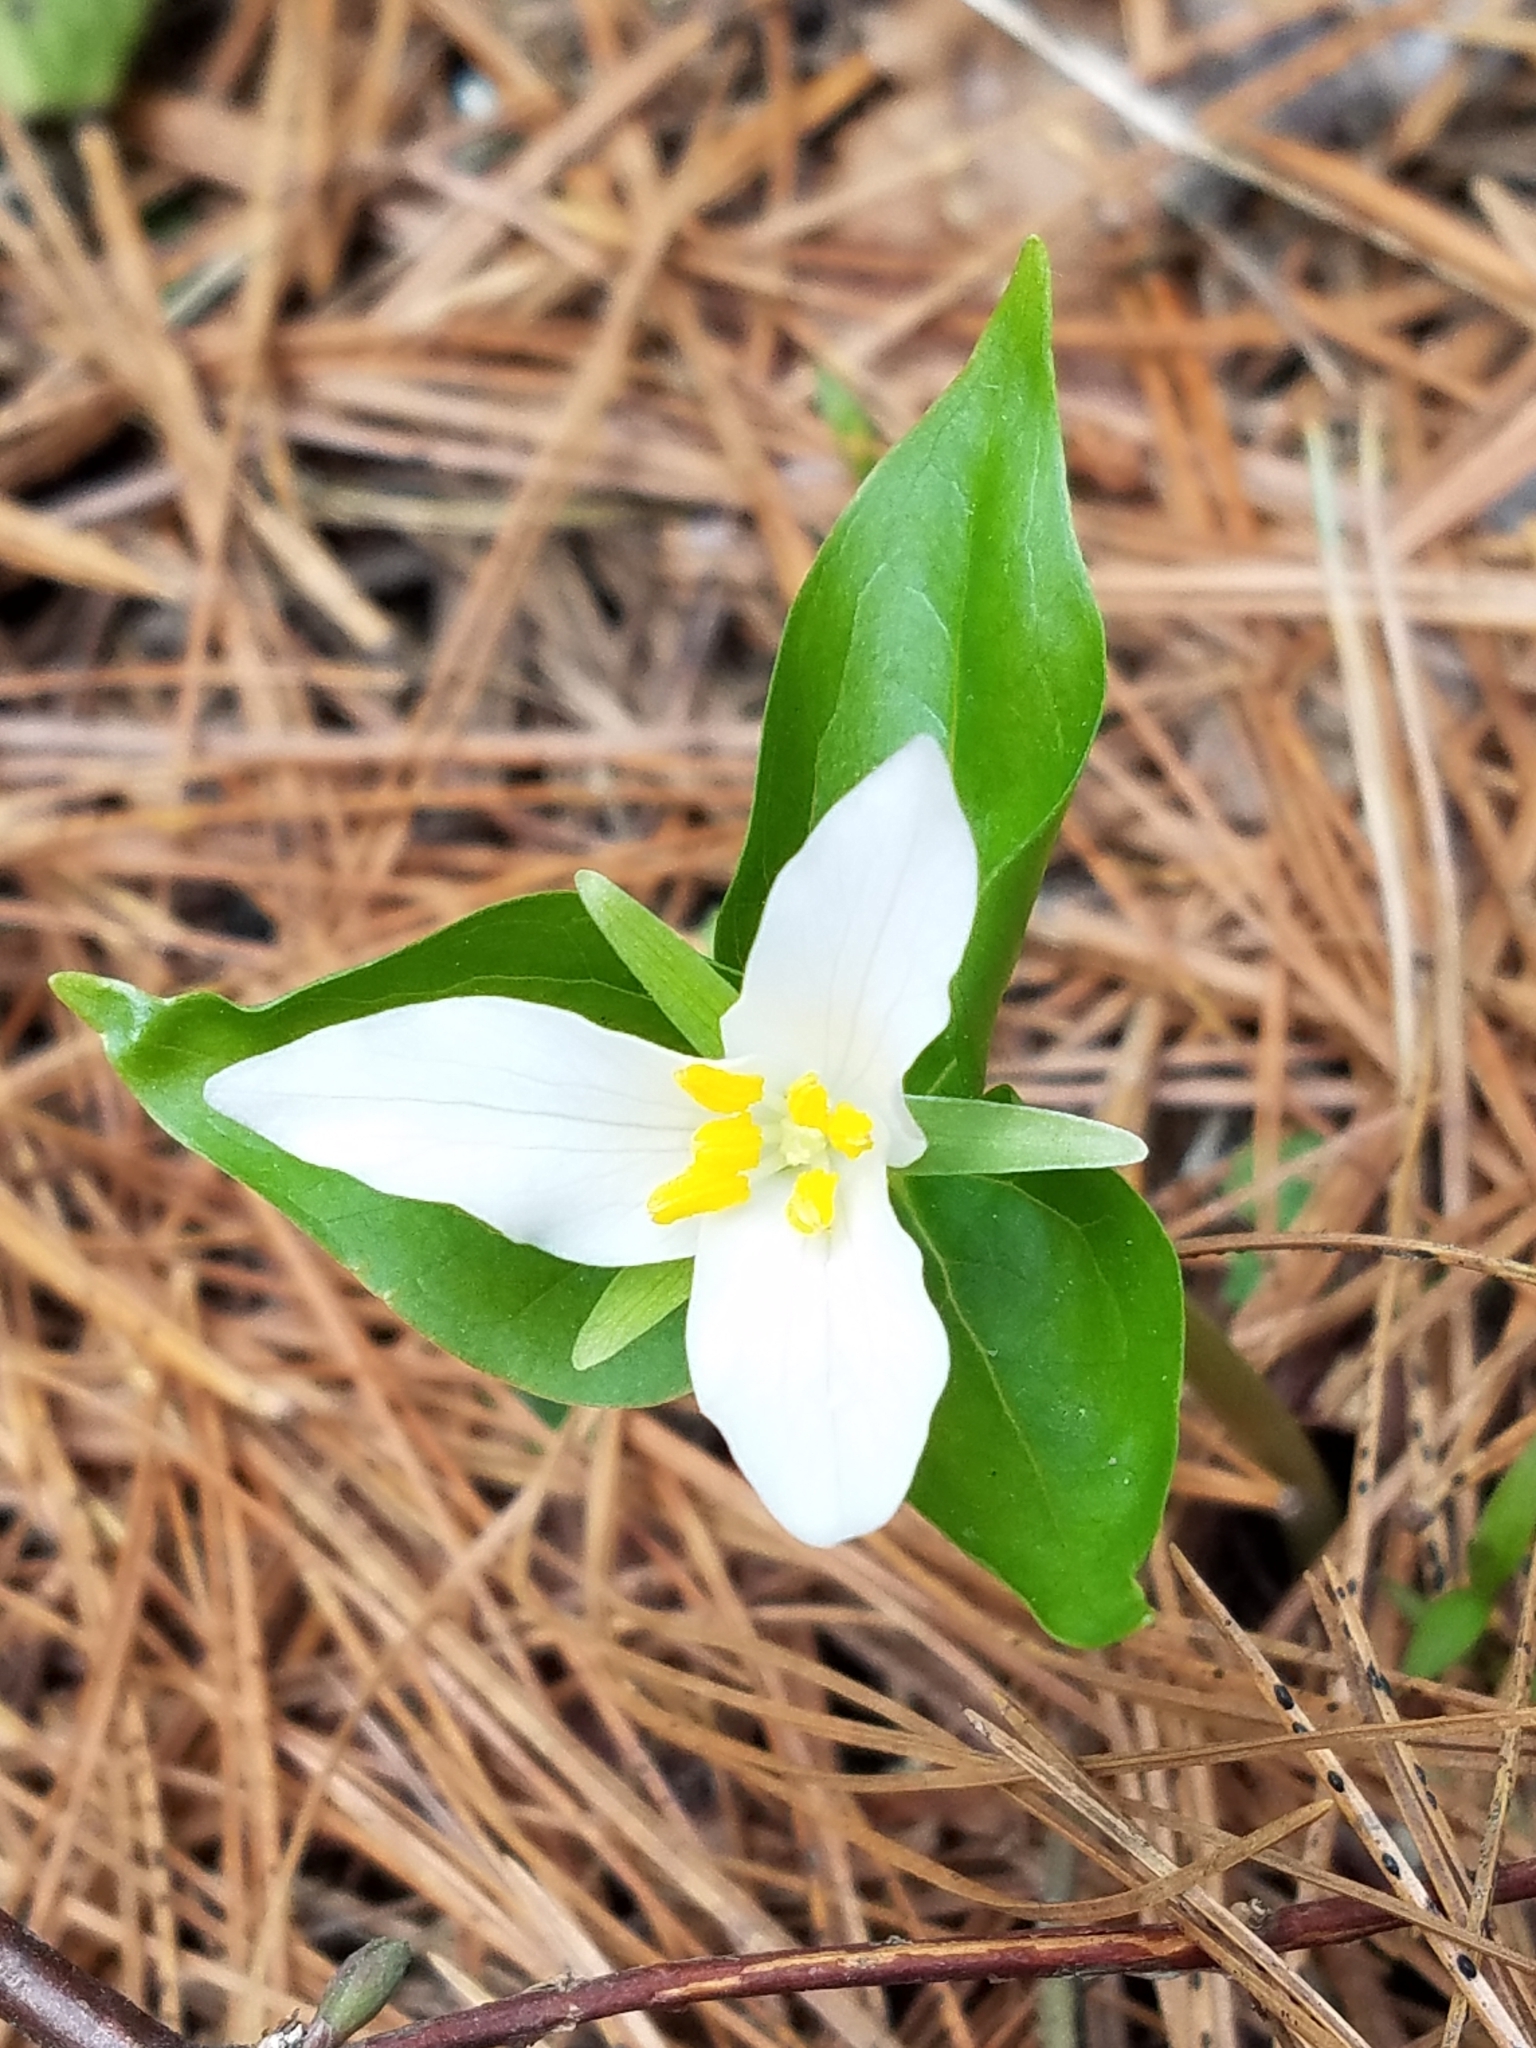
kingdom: Plantae
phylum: Tracheophyta
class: Liliopsida
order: Liliales
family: Melanthiaceae
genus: Trillium
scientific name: Trillium ovatum
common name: Pacific trillium
